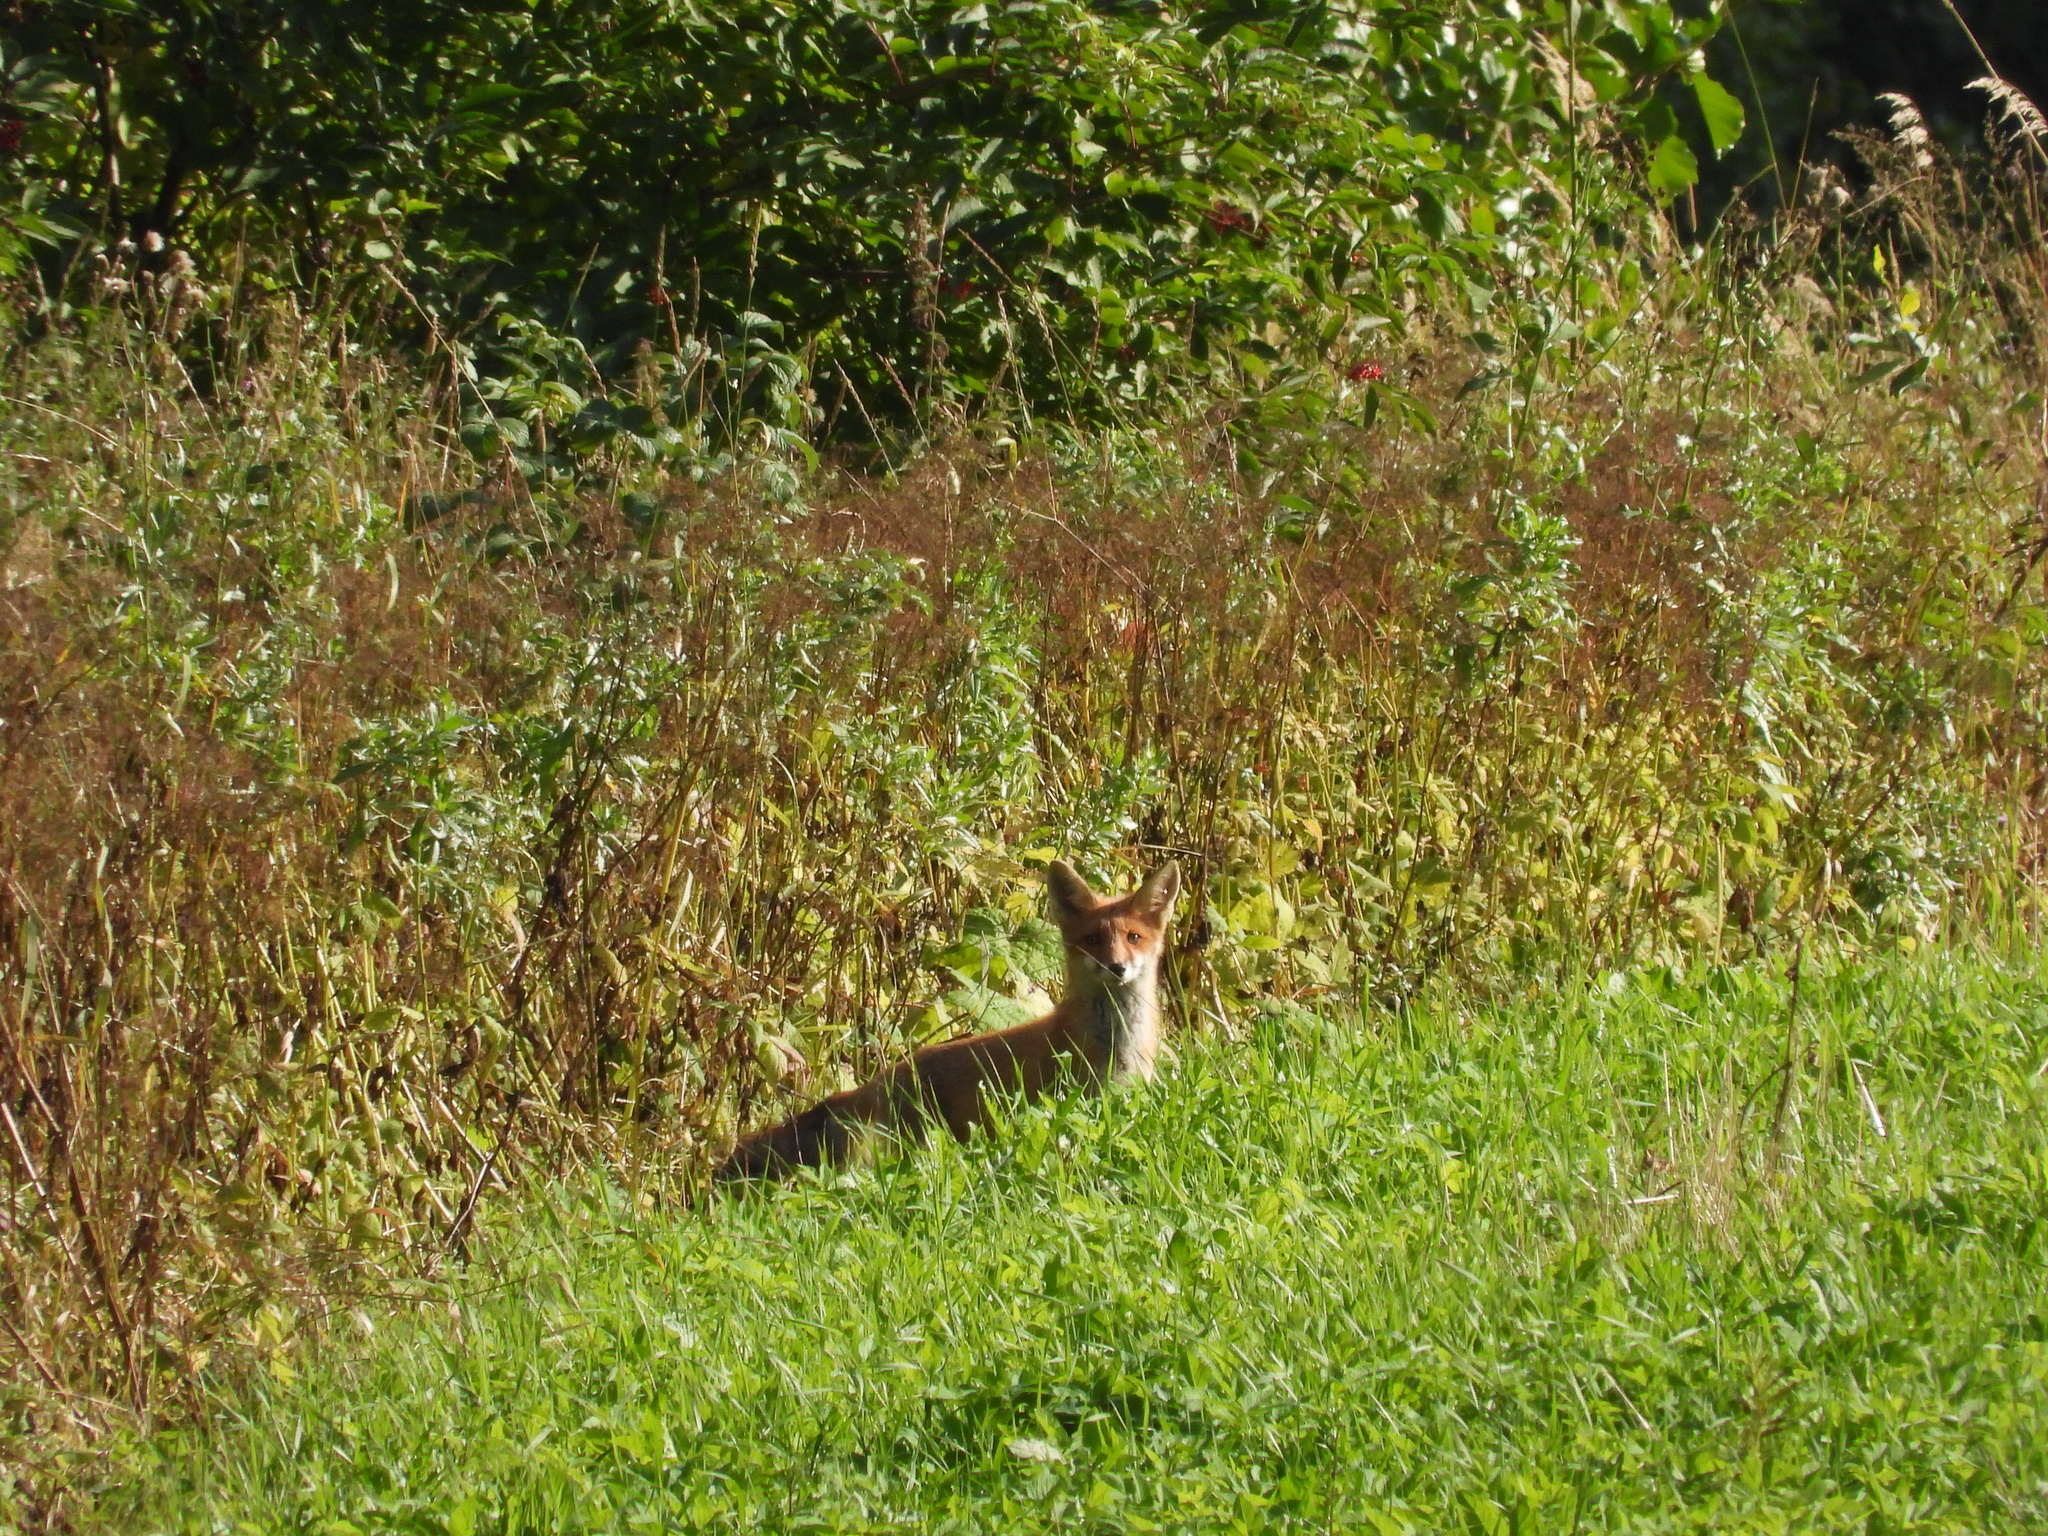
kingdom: Animalia
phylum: Chordata
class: Mammalia
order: Carnivora
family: Canidae
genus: Vulpes
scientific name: Vulpes vulpes
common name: Red fox
